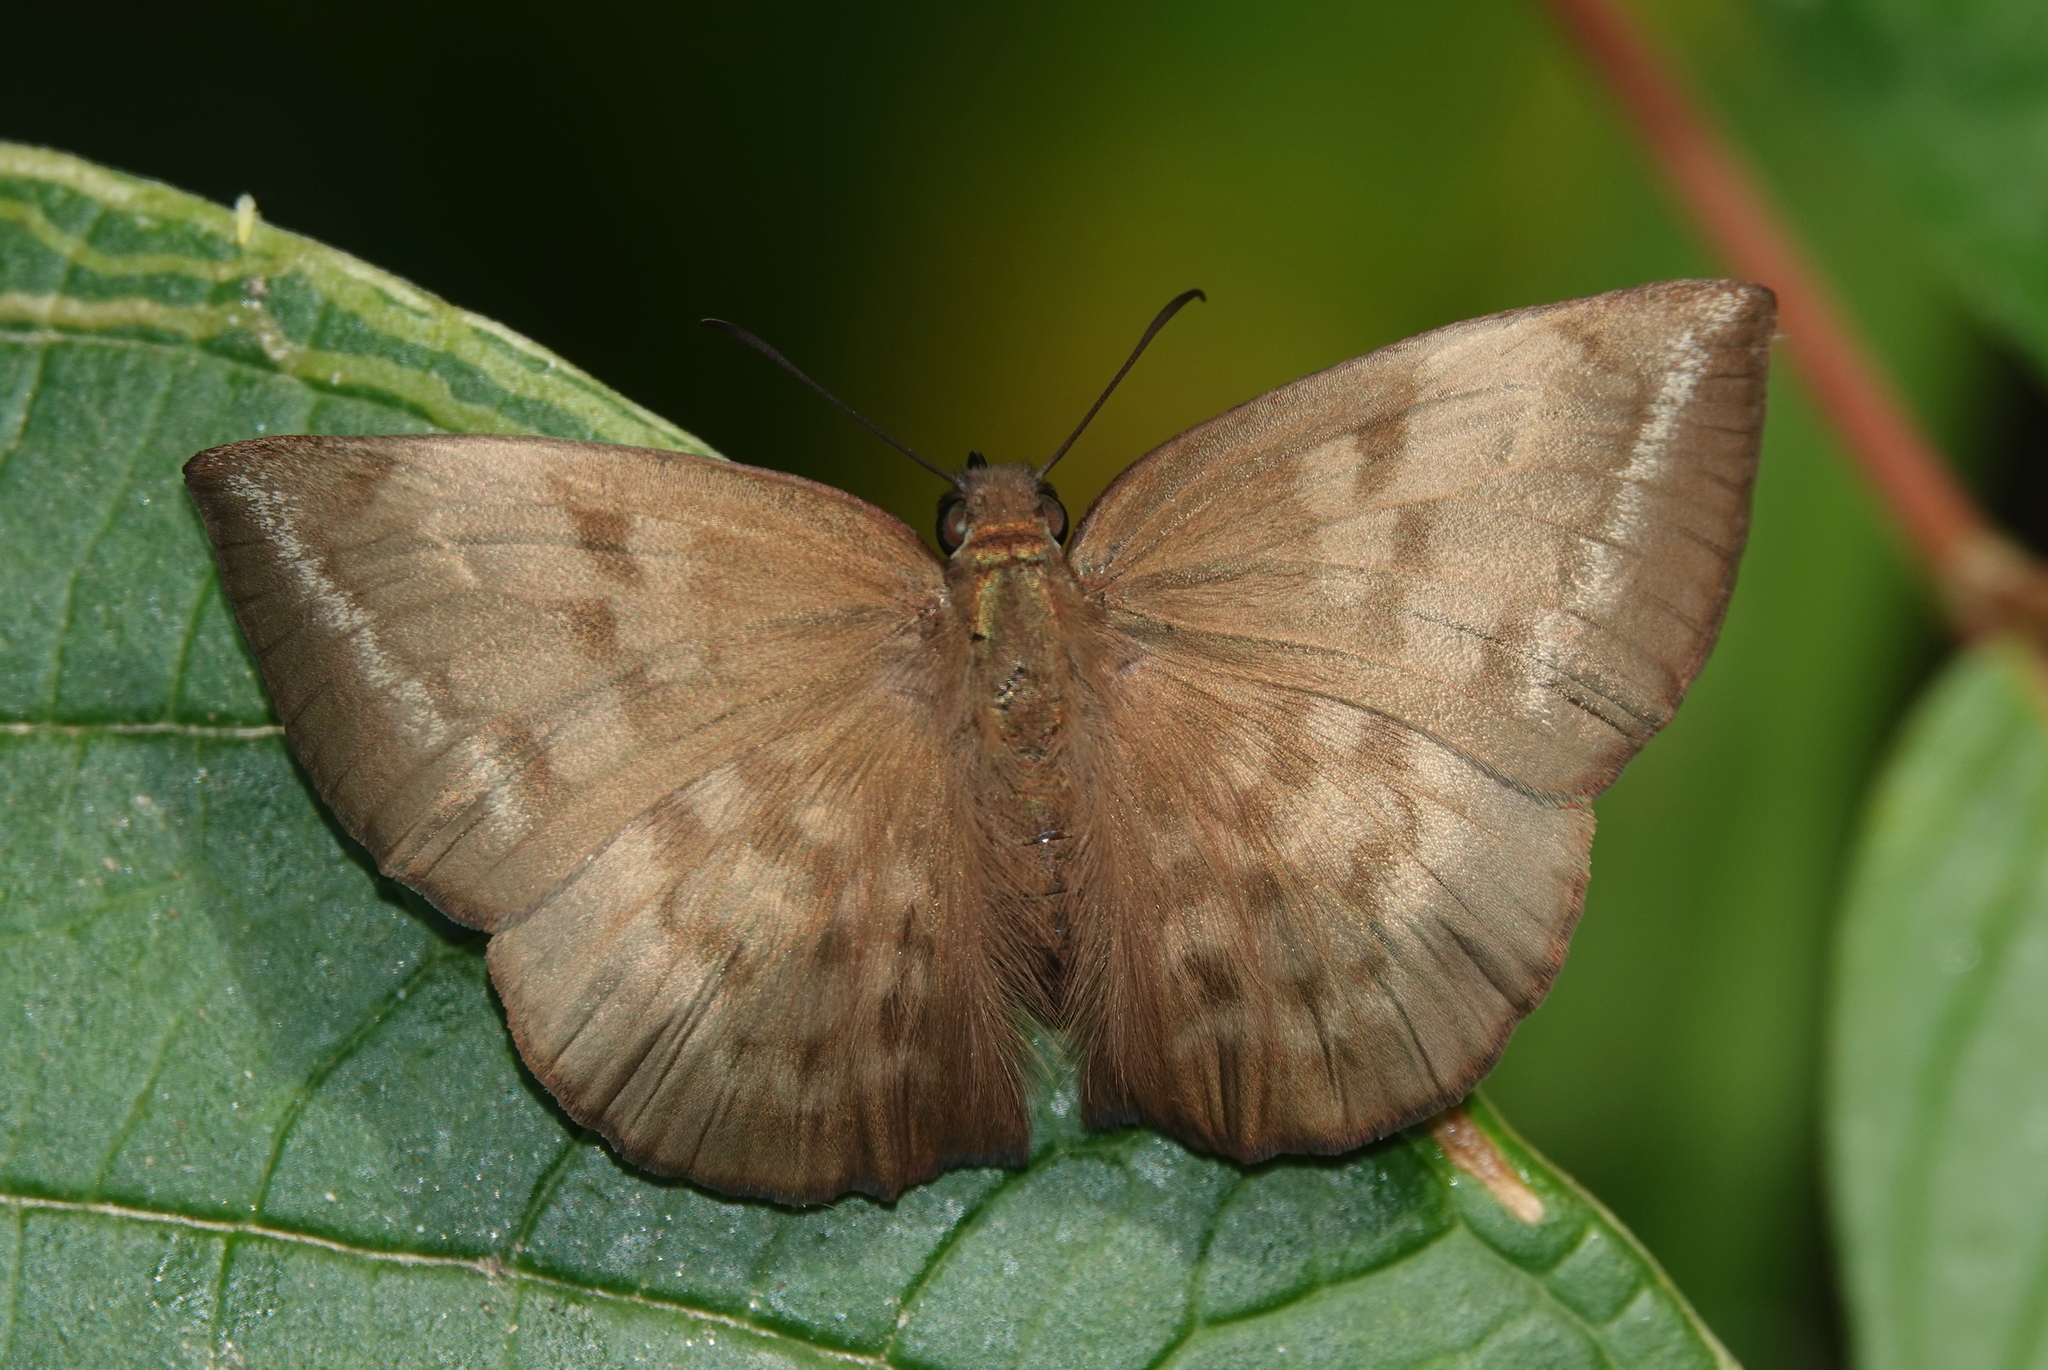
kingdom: Animalia
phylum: Arthropoda
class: Insecta
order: Lepidoptera
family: Hesperiidae
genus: Achlyodes
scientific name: Achlyodes pallida
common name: Pale sicklewing
